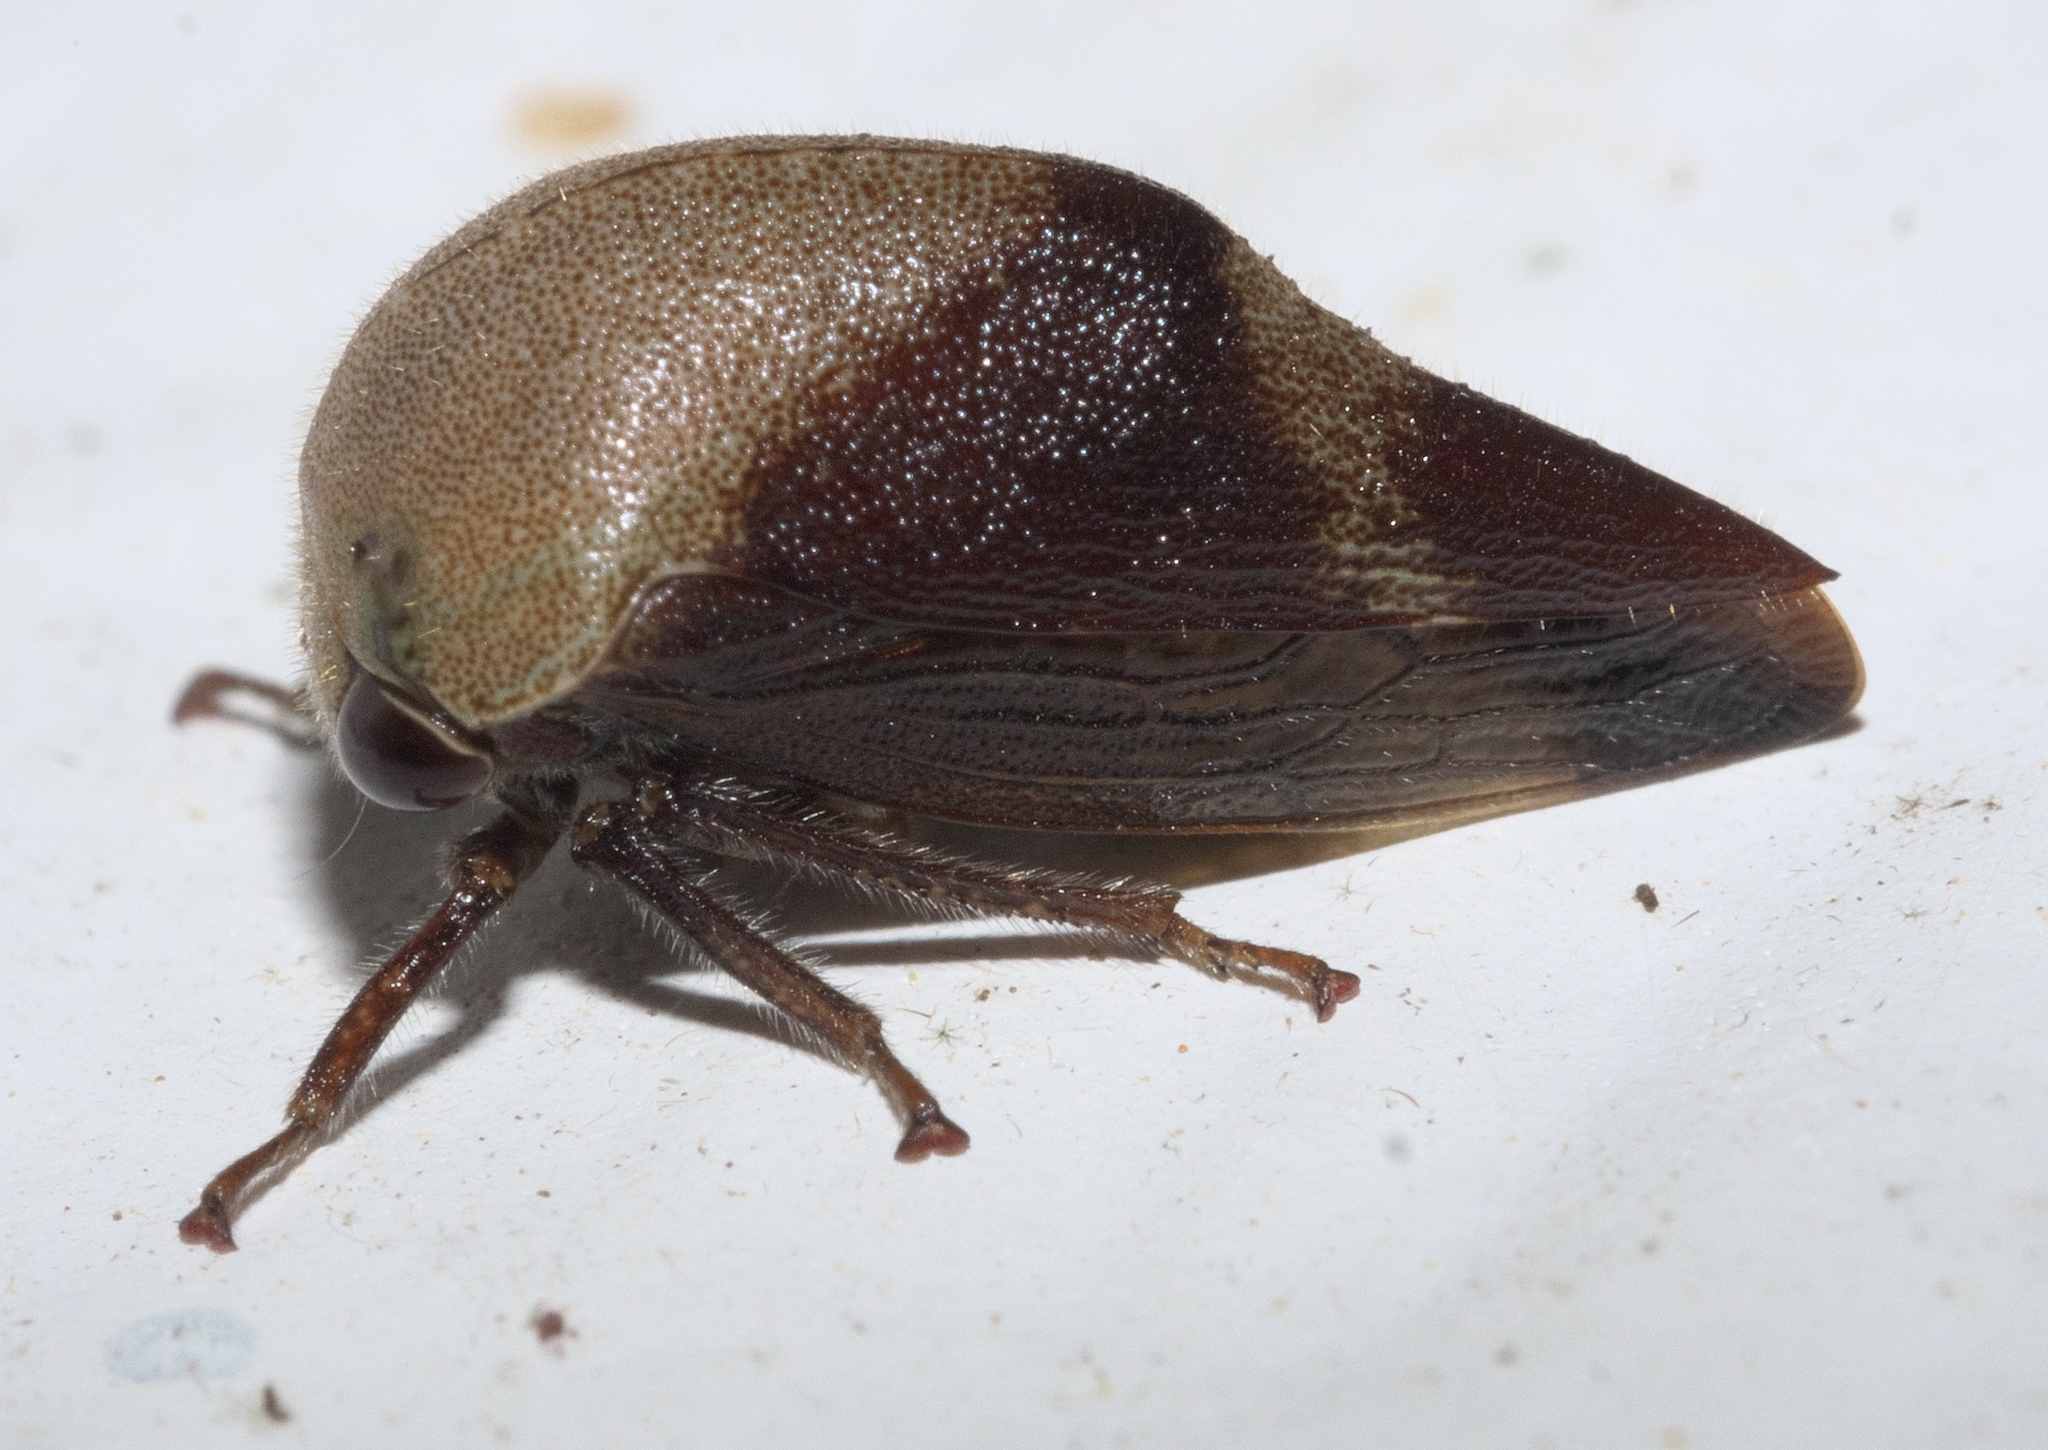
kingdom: Animalia
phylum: Arthropoda
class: Insecta
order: Hemiptera
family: Membracidae
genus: Carynota
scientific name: Carynota mera
